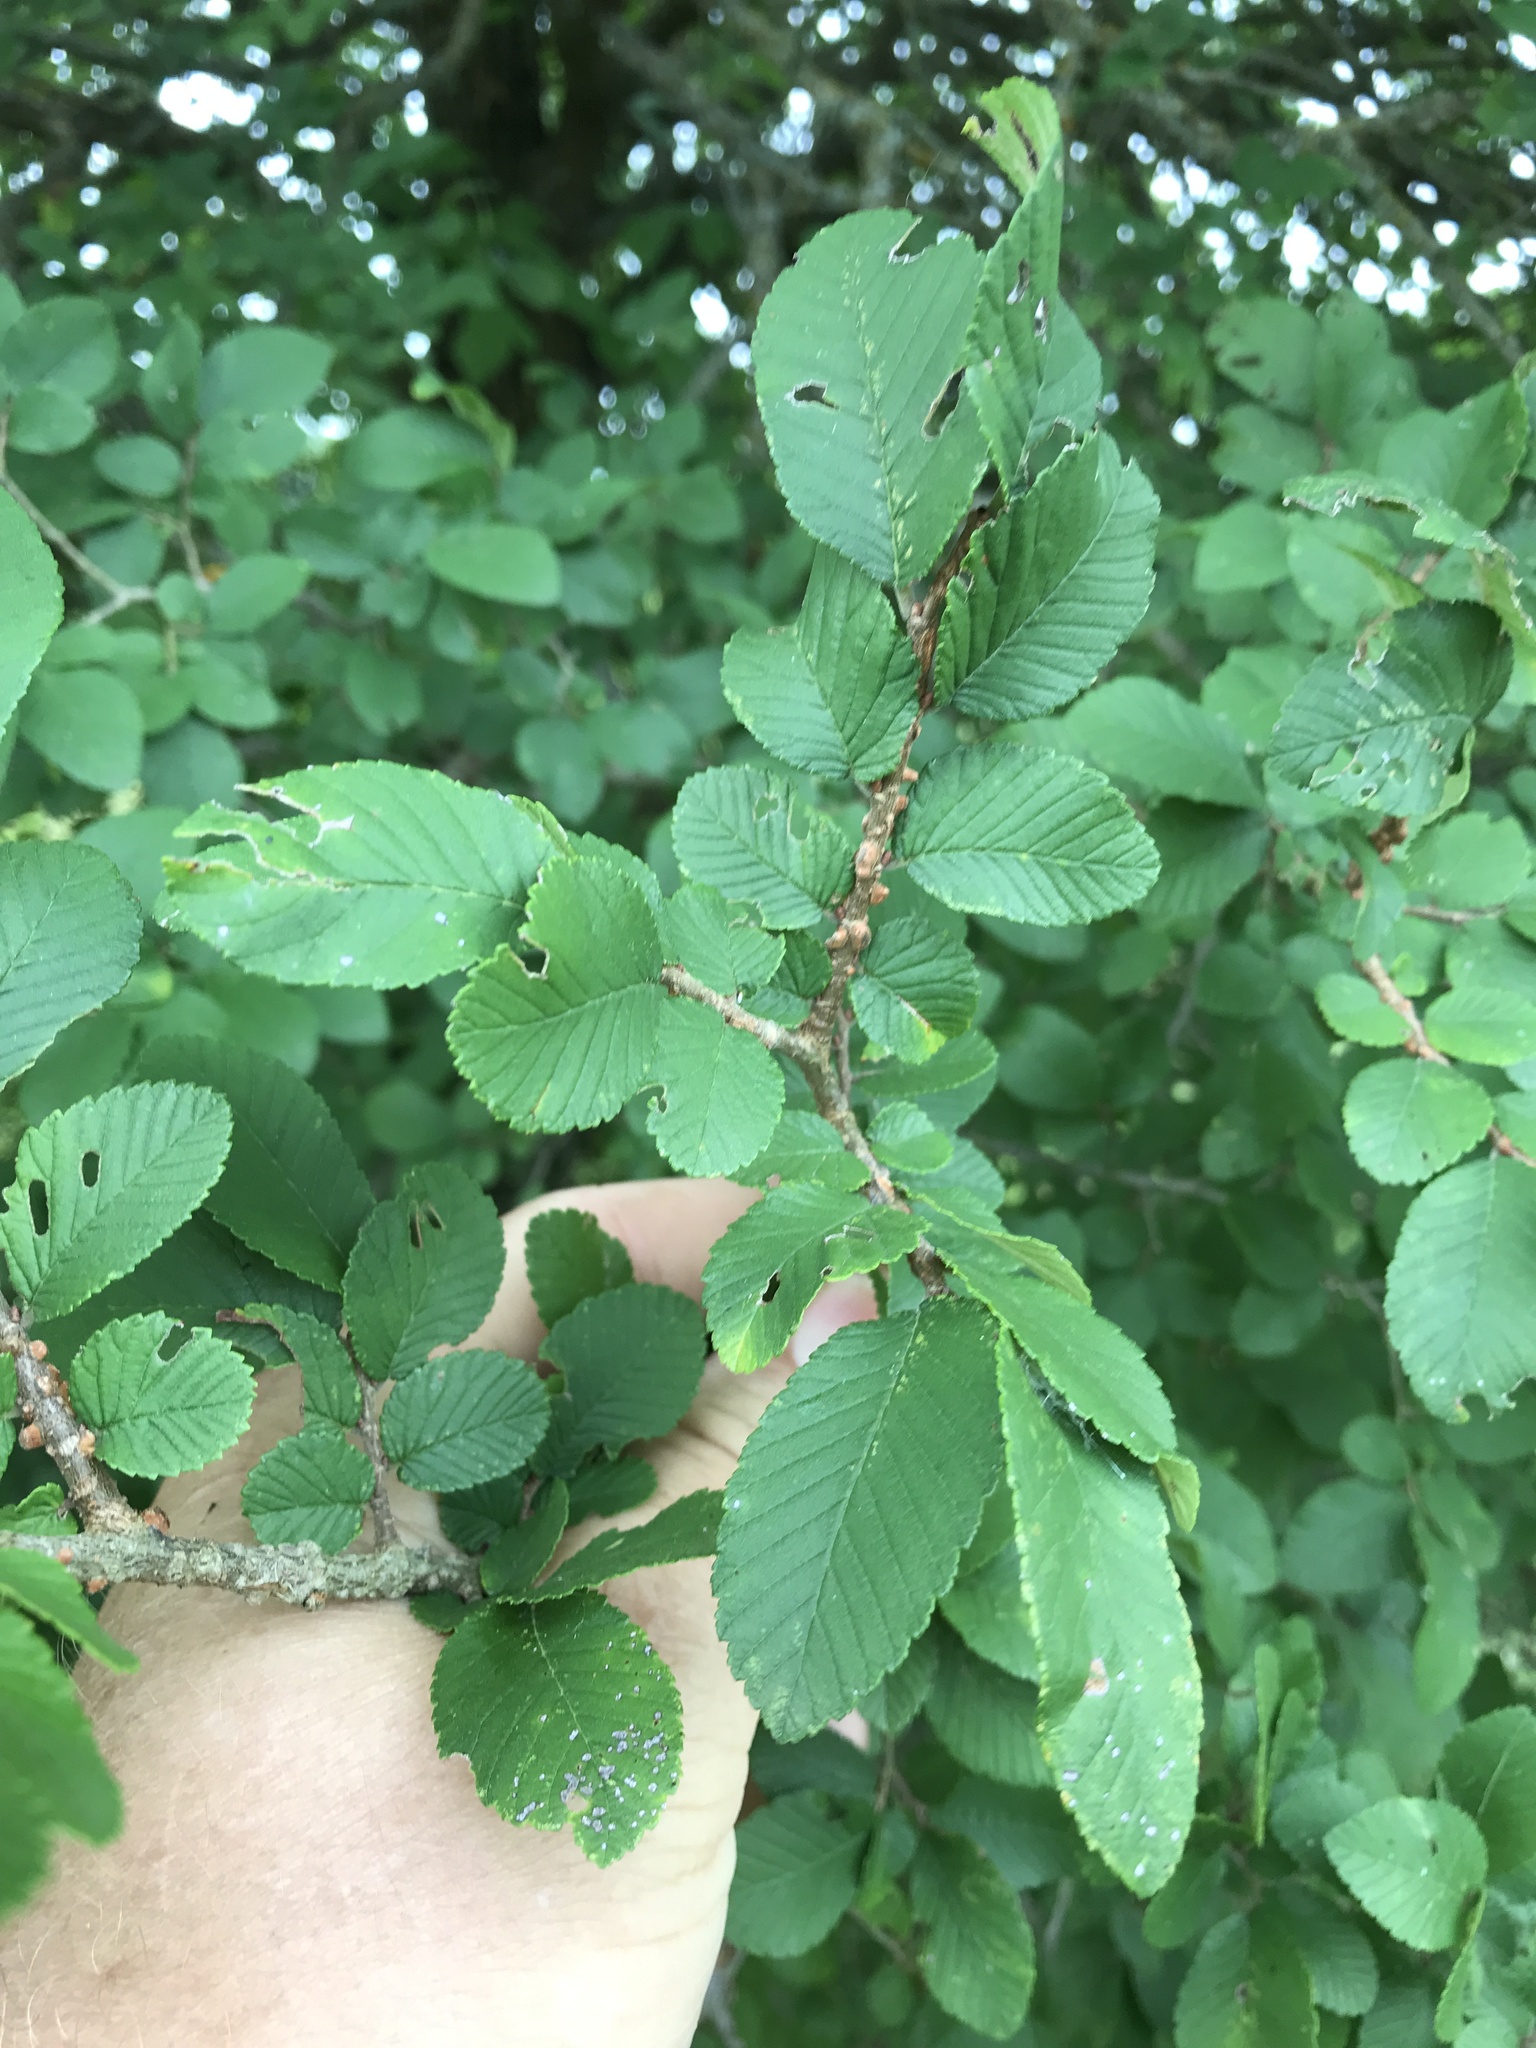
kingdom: Plantae
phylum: Tracheophyta
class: Magnoliopsida
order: Rosales
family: Ulmaceae
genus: Ulmus
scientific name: Ulmus crassifolia
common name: Basket elm
